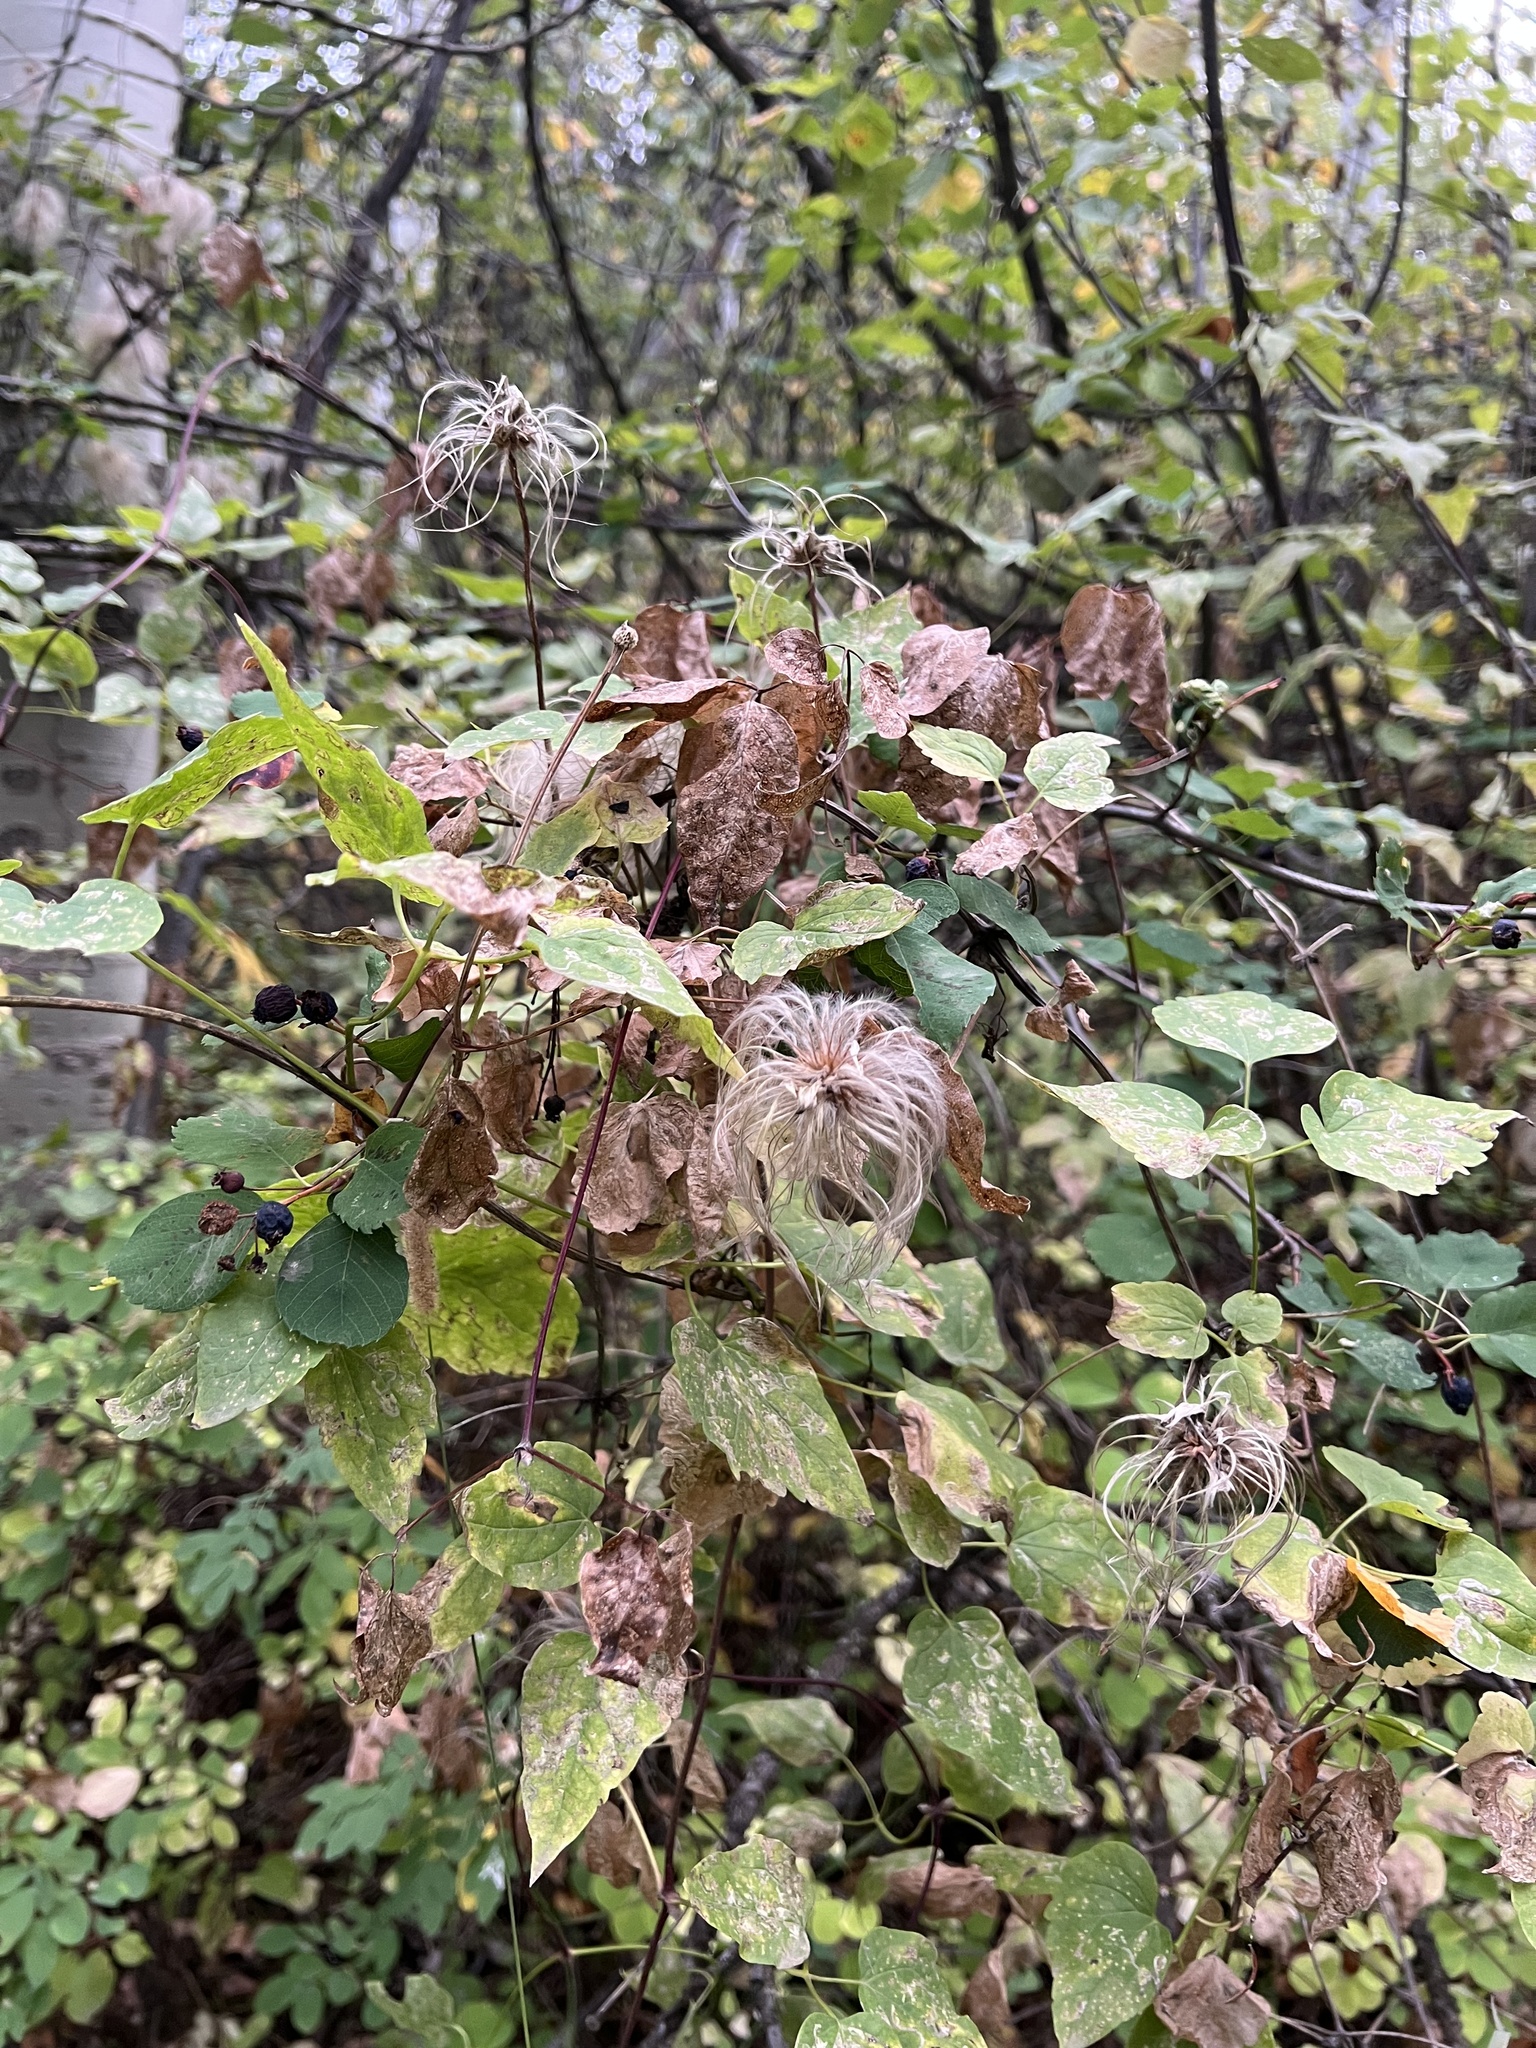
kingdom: Plantae
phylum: Tracheophyta
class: Magnoliopsida
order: Ranunculales
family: Ranunculaceae
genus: Clematis
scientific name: Clematis occidentalis
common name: Purple clematis
